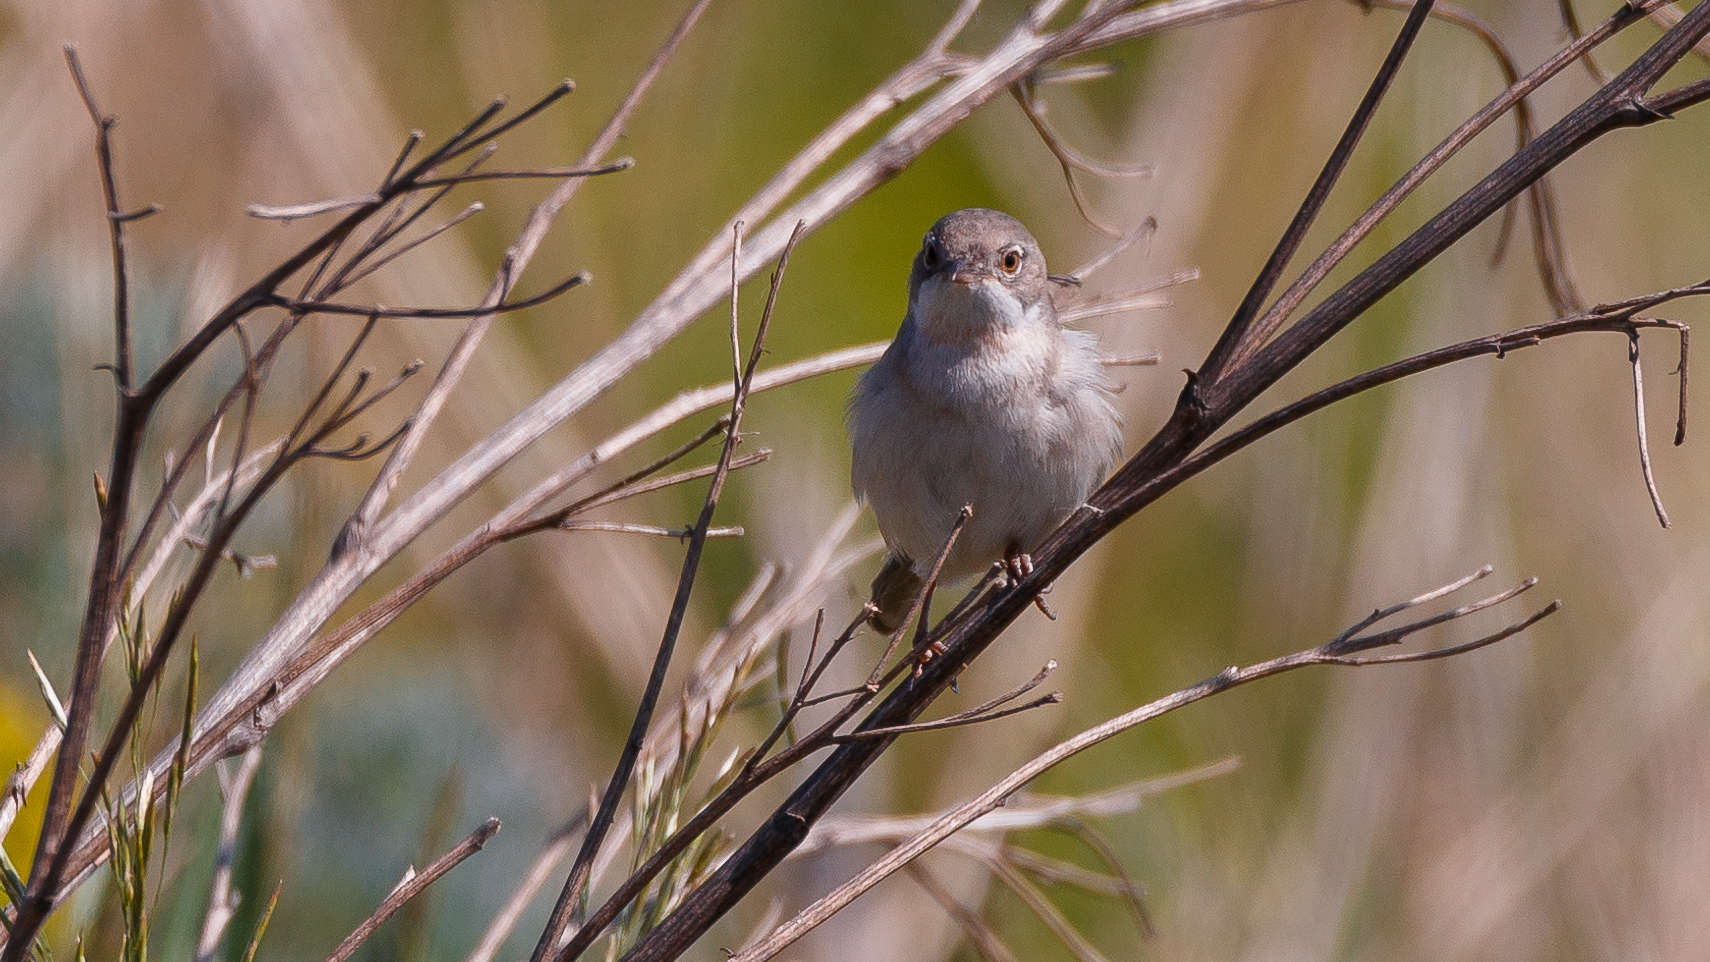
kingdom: Animalia
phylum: Chordata
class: Aves
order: Passeriformes
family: Sylviidae
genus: Sylvia
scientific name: Sylvia communis
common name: Common whitethroat
